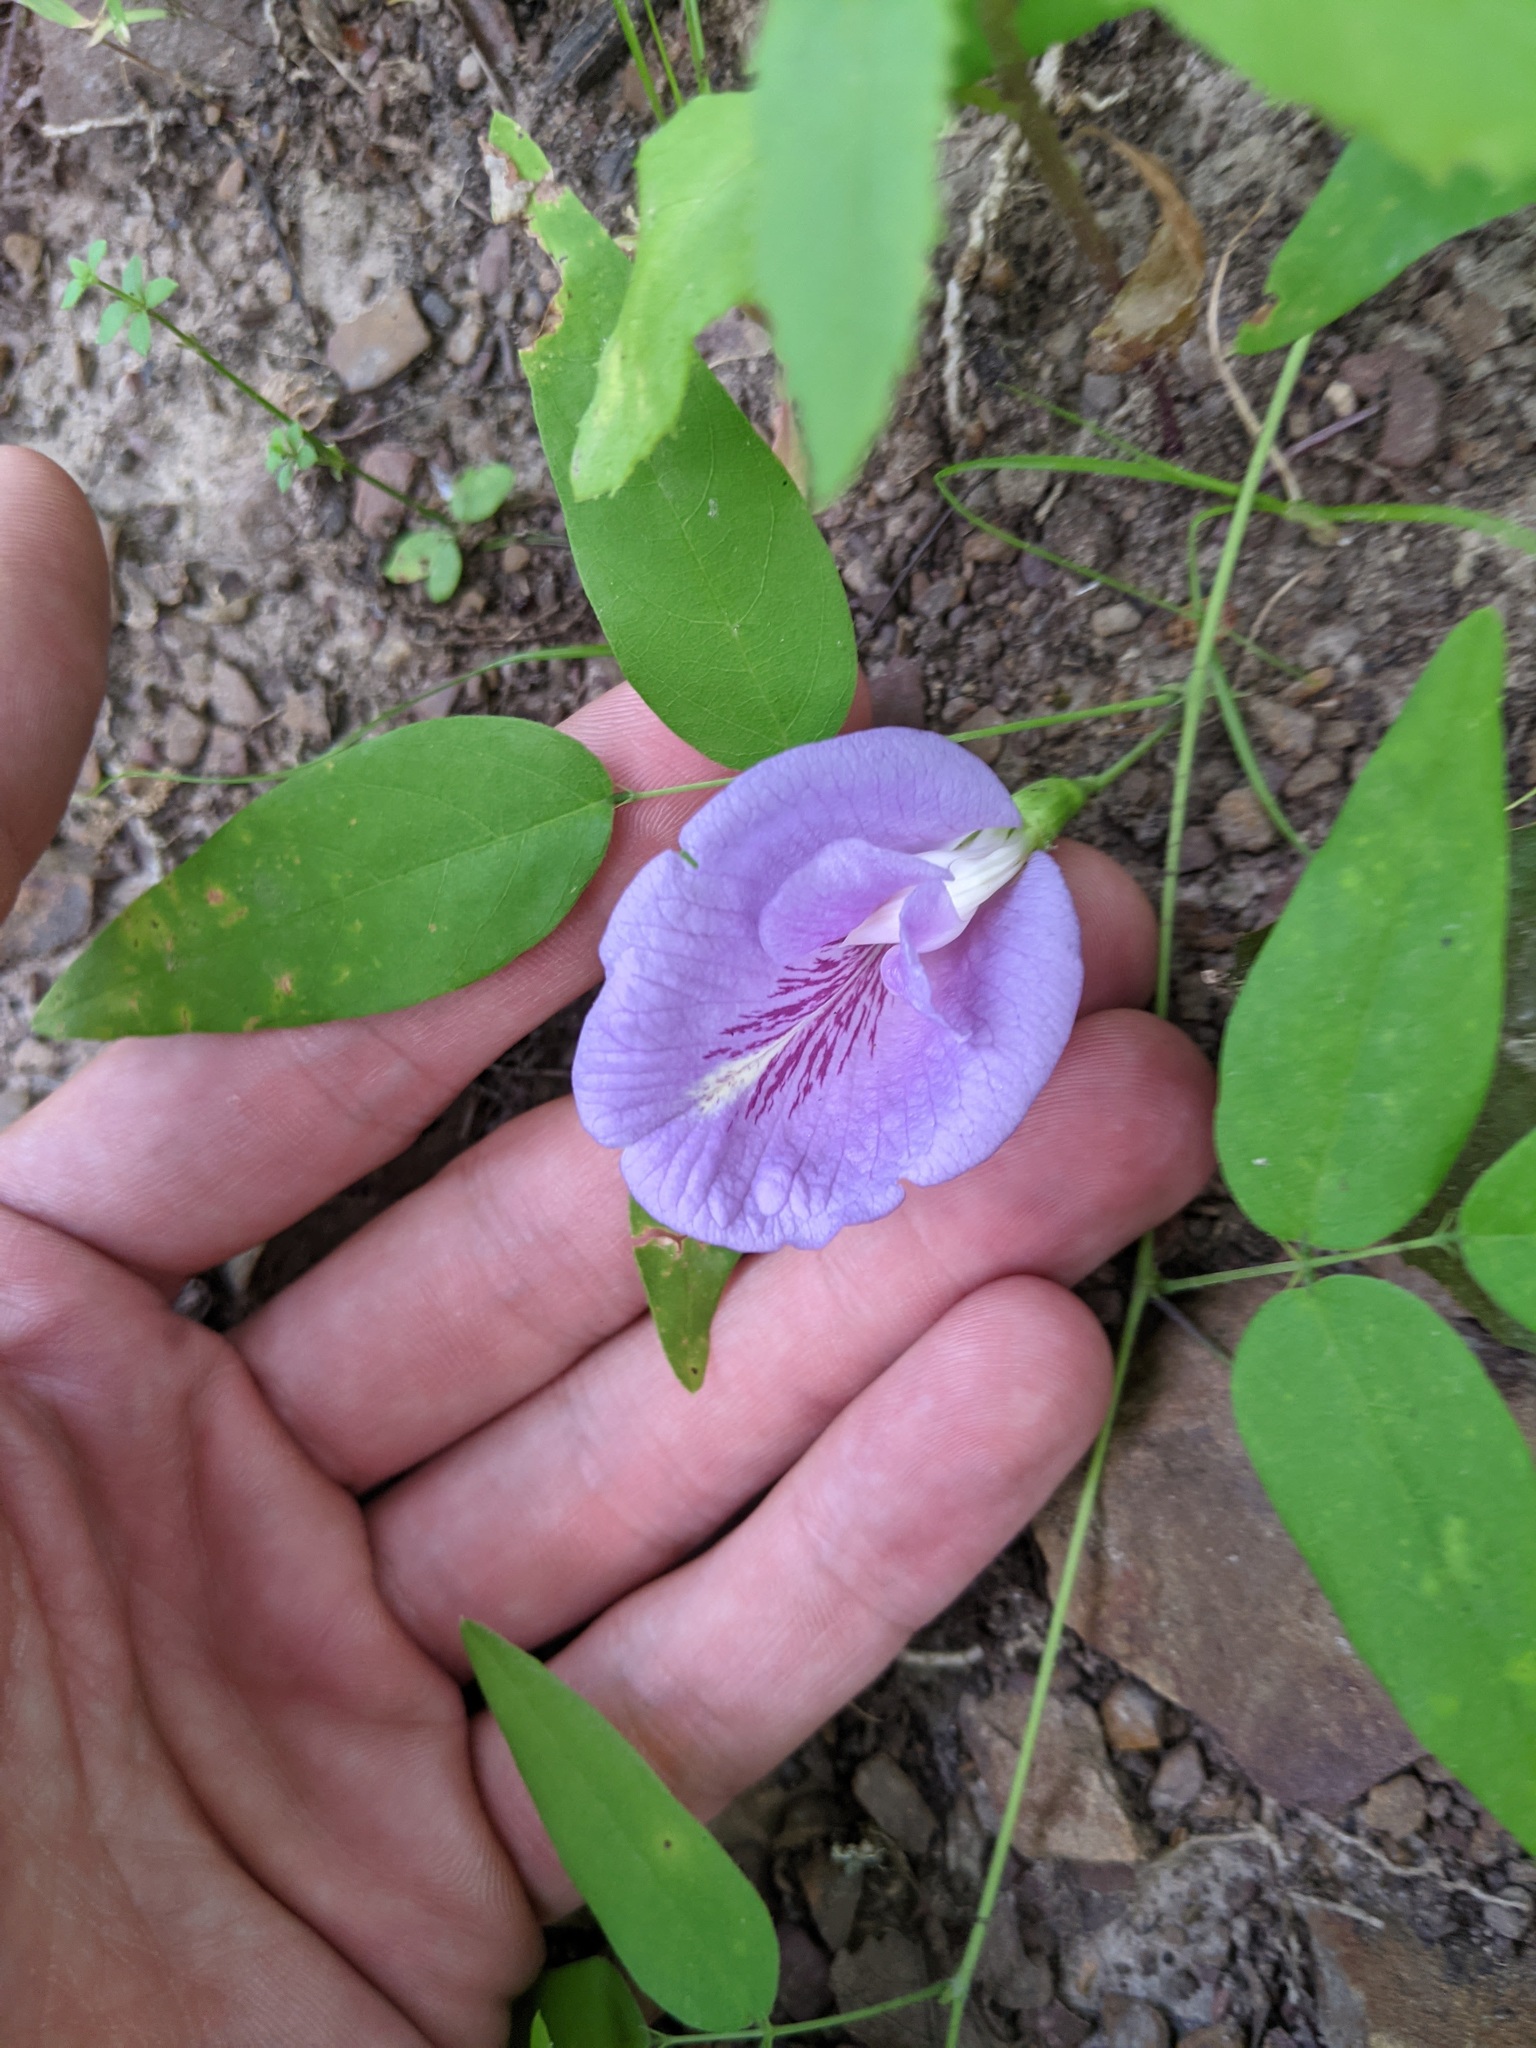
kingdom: Plantae
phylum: Tracheophyta
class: Magnoliopsida
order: Fabales
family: Fabaceae
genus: Clitoria
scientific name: Clitoria mariana
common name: Butterfly-pea
